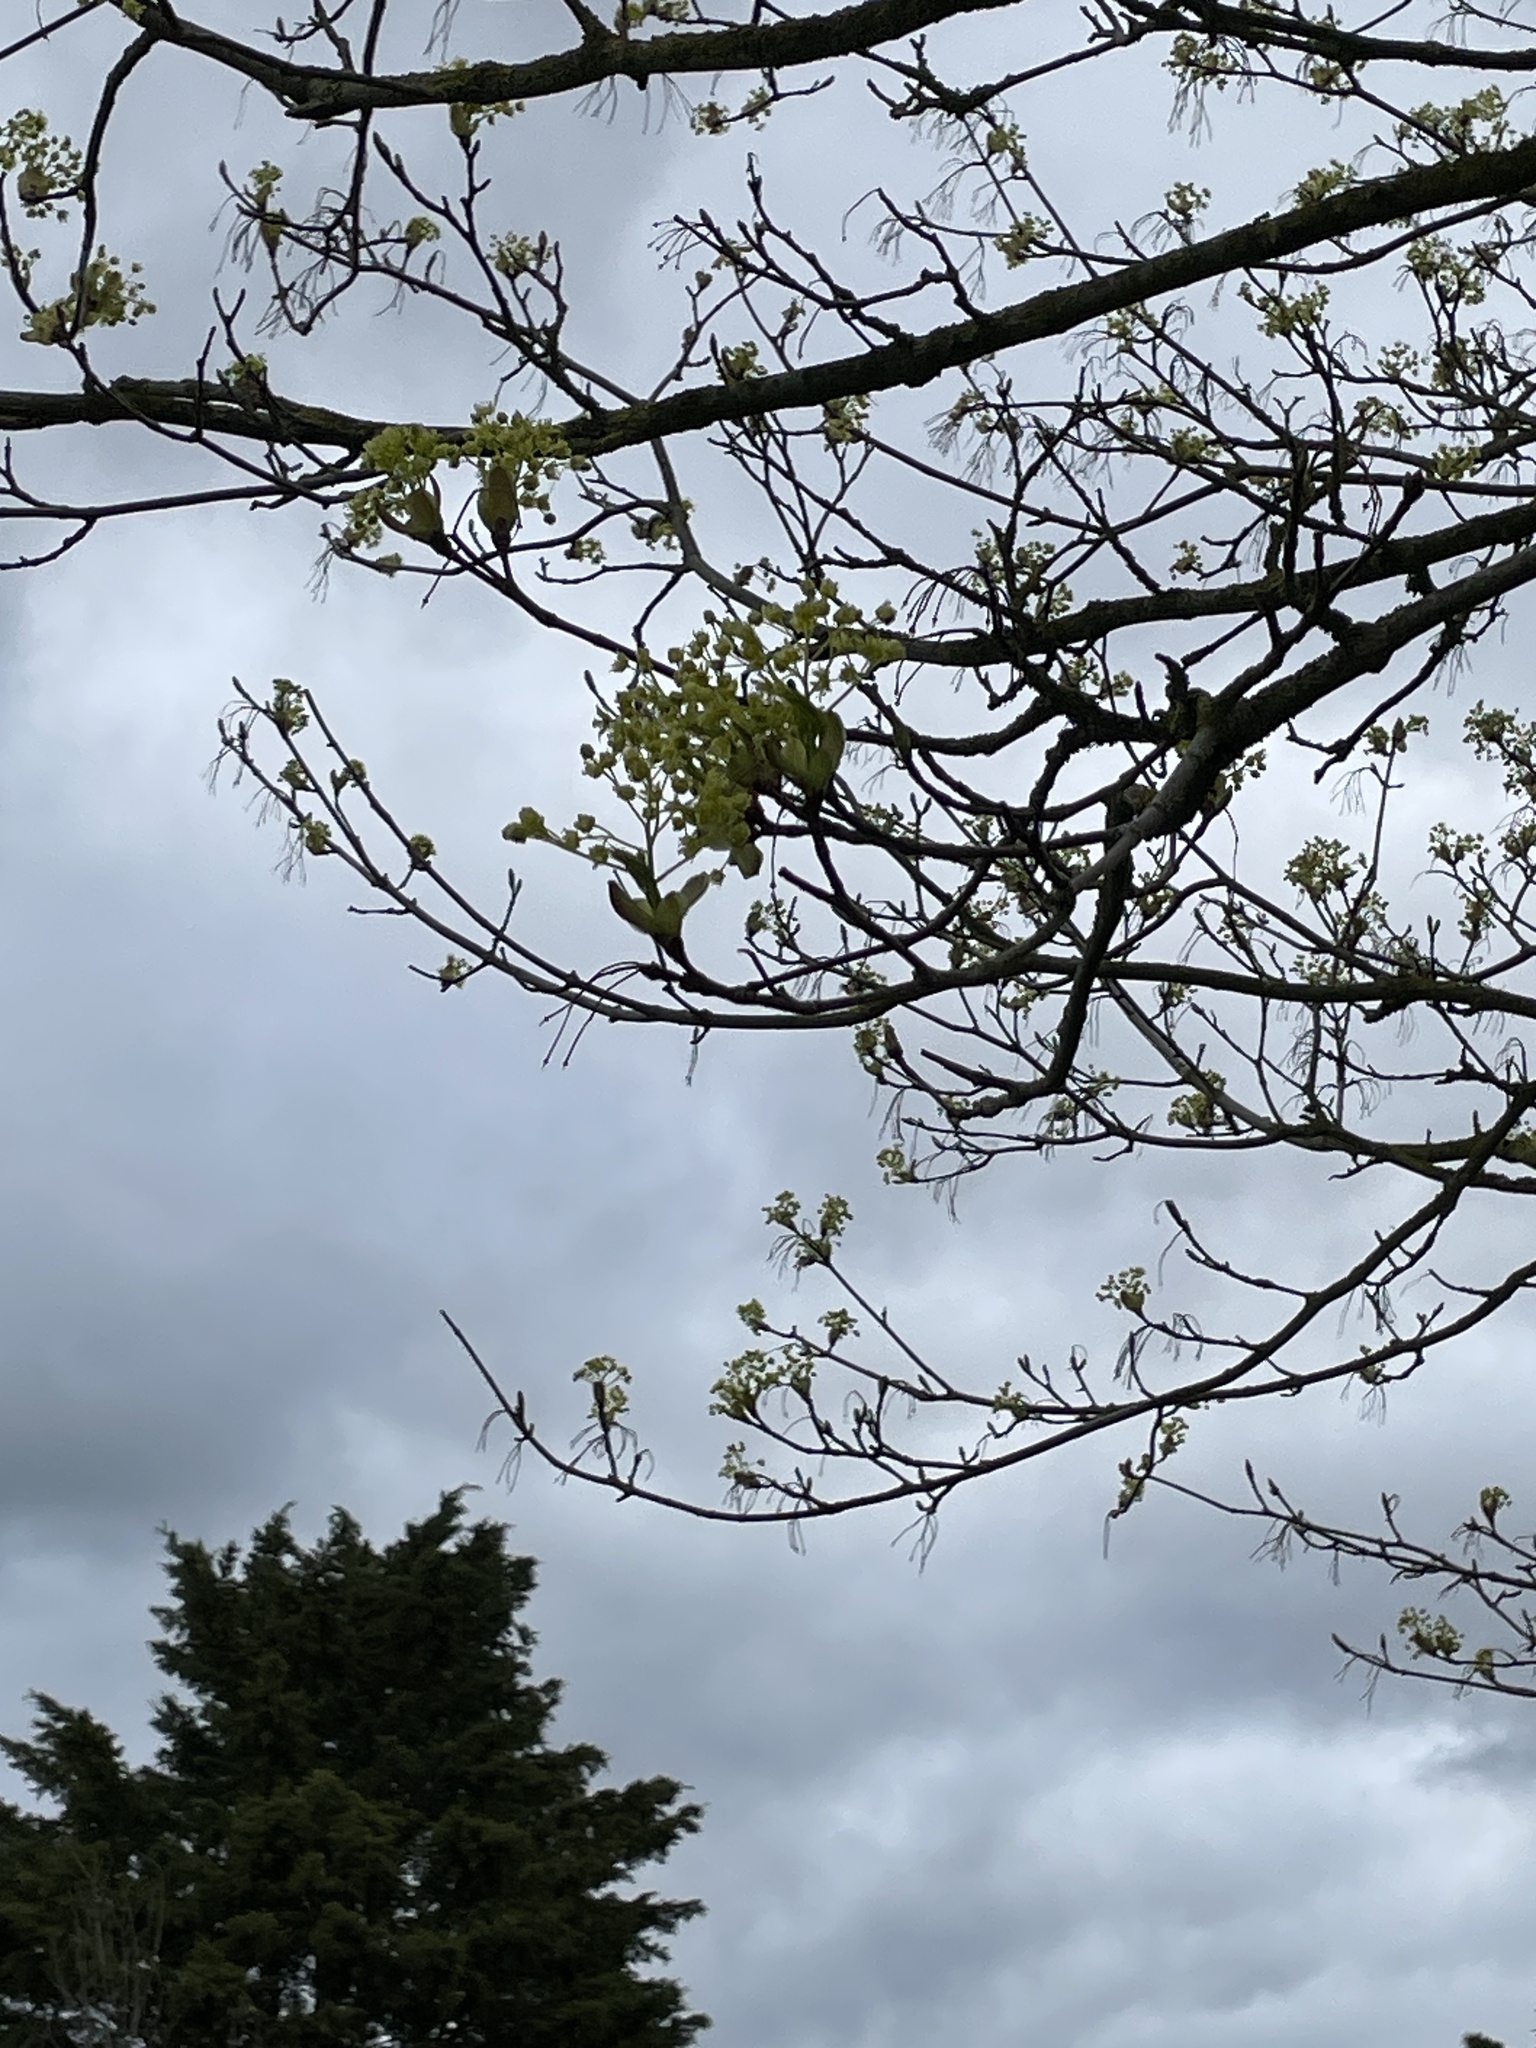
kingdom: Plantae
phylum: Tracheophyta
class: Magnoliopsida
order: Sapindales
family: Sapindaceae
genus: Acer
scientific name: Acer platanoides
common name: Norway maple
